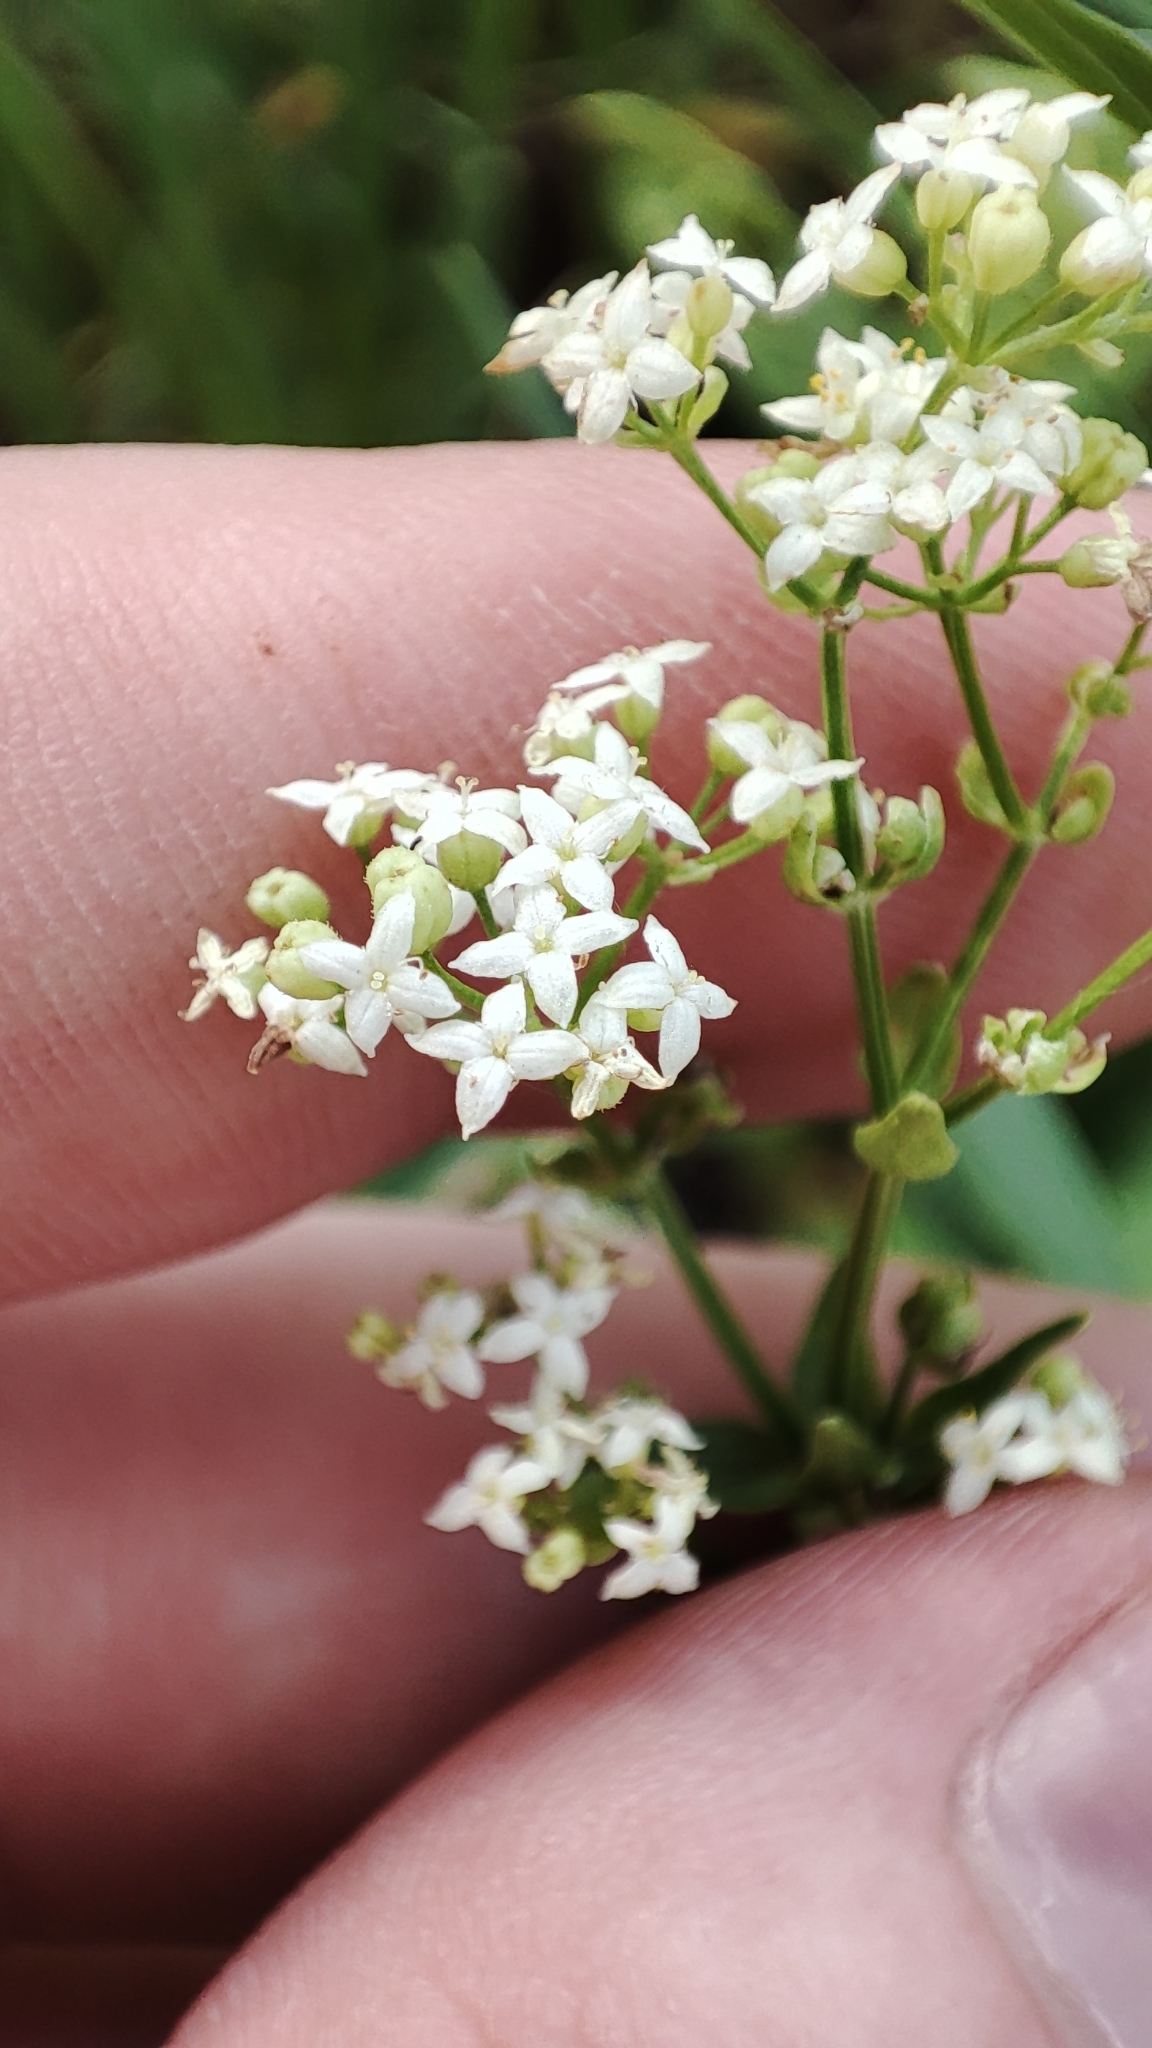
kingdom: Plantae
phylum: Tracheophyta
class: Magnoliopsida
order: Gentianales
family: Rubiaceae
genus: Galium
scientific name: Galium rubioides
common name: European bedstraw
